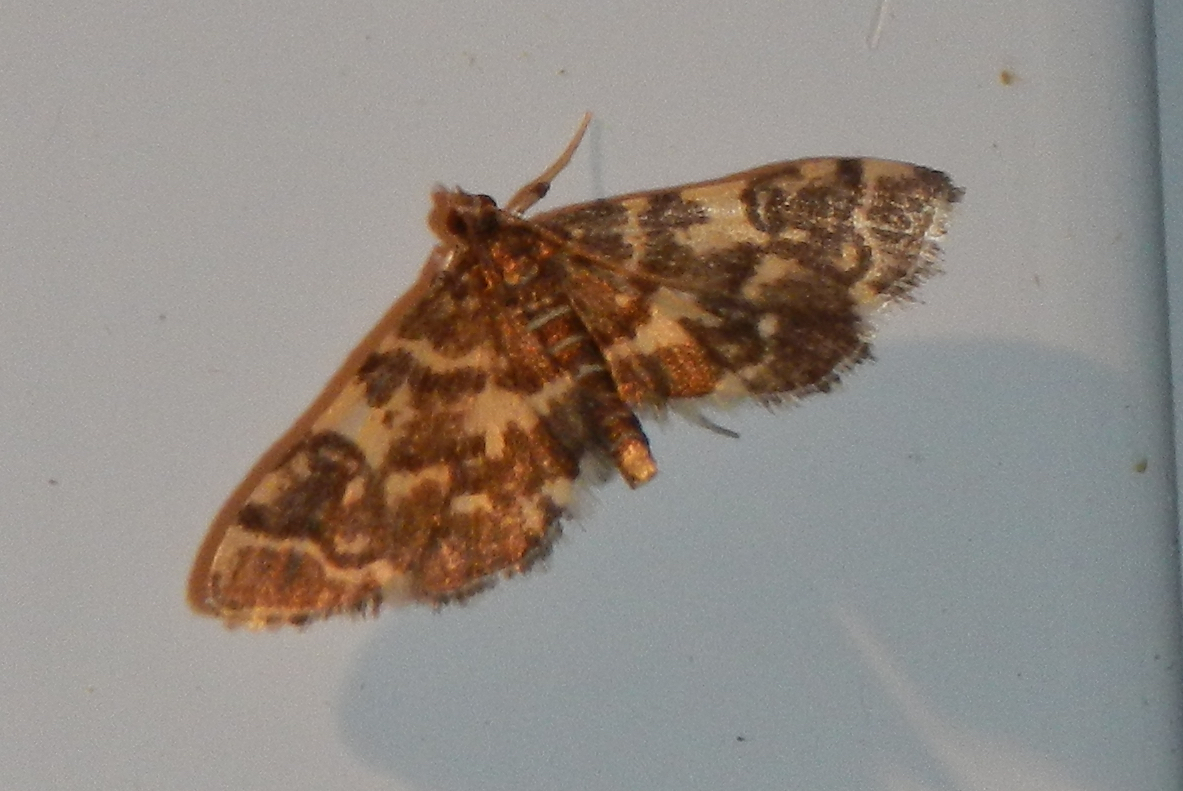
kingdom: Animalia
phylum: Arthropoda
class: Insecta
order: Lepidoptera
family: Crambidae
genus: Apogeshna
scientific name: Apogeshna stenialis
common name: Checkered apogeshna moth
